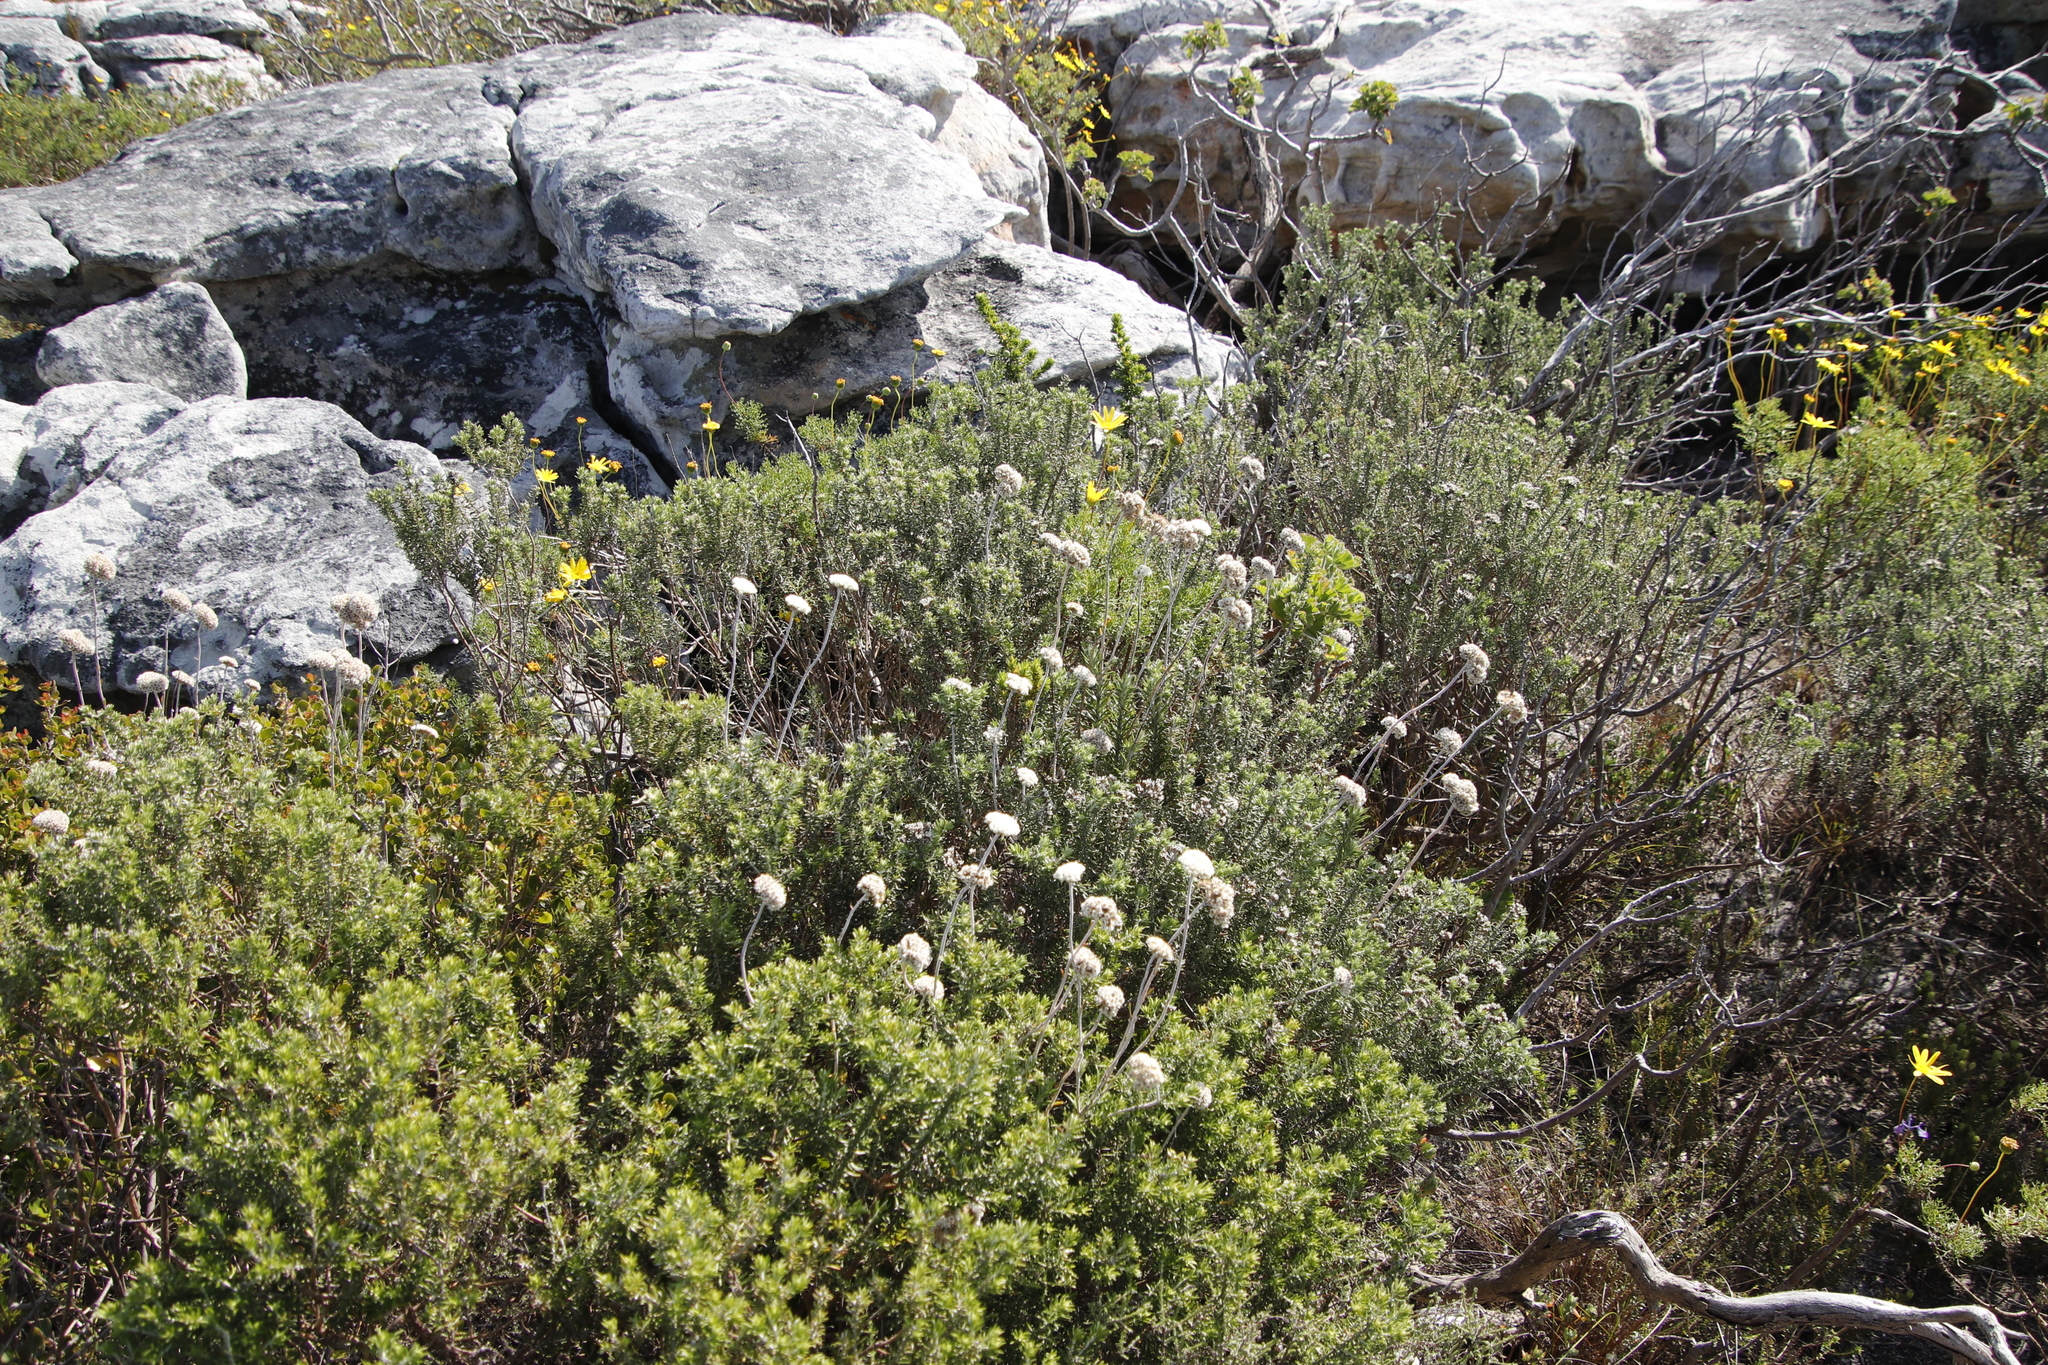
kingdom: Plantae
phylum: Tracheophyta
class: Magnoliopsida
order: Asterales
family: Asteraceae
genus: Anaxeton
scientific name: Anaxeton laeve
